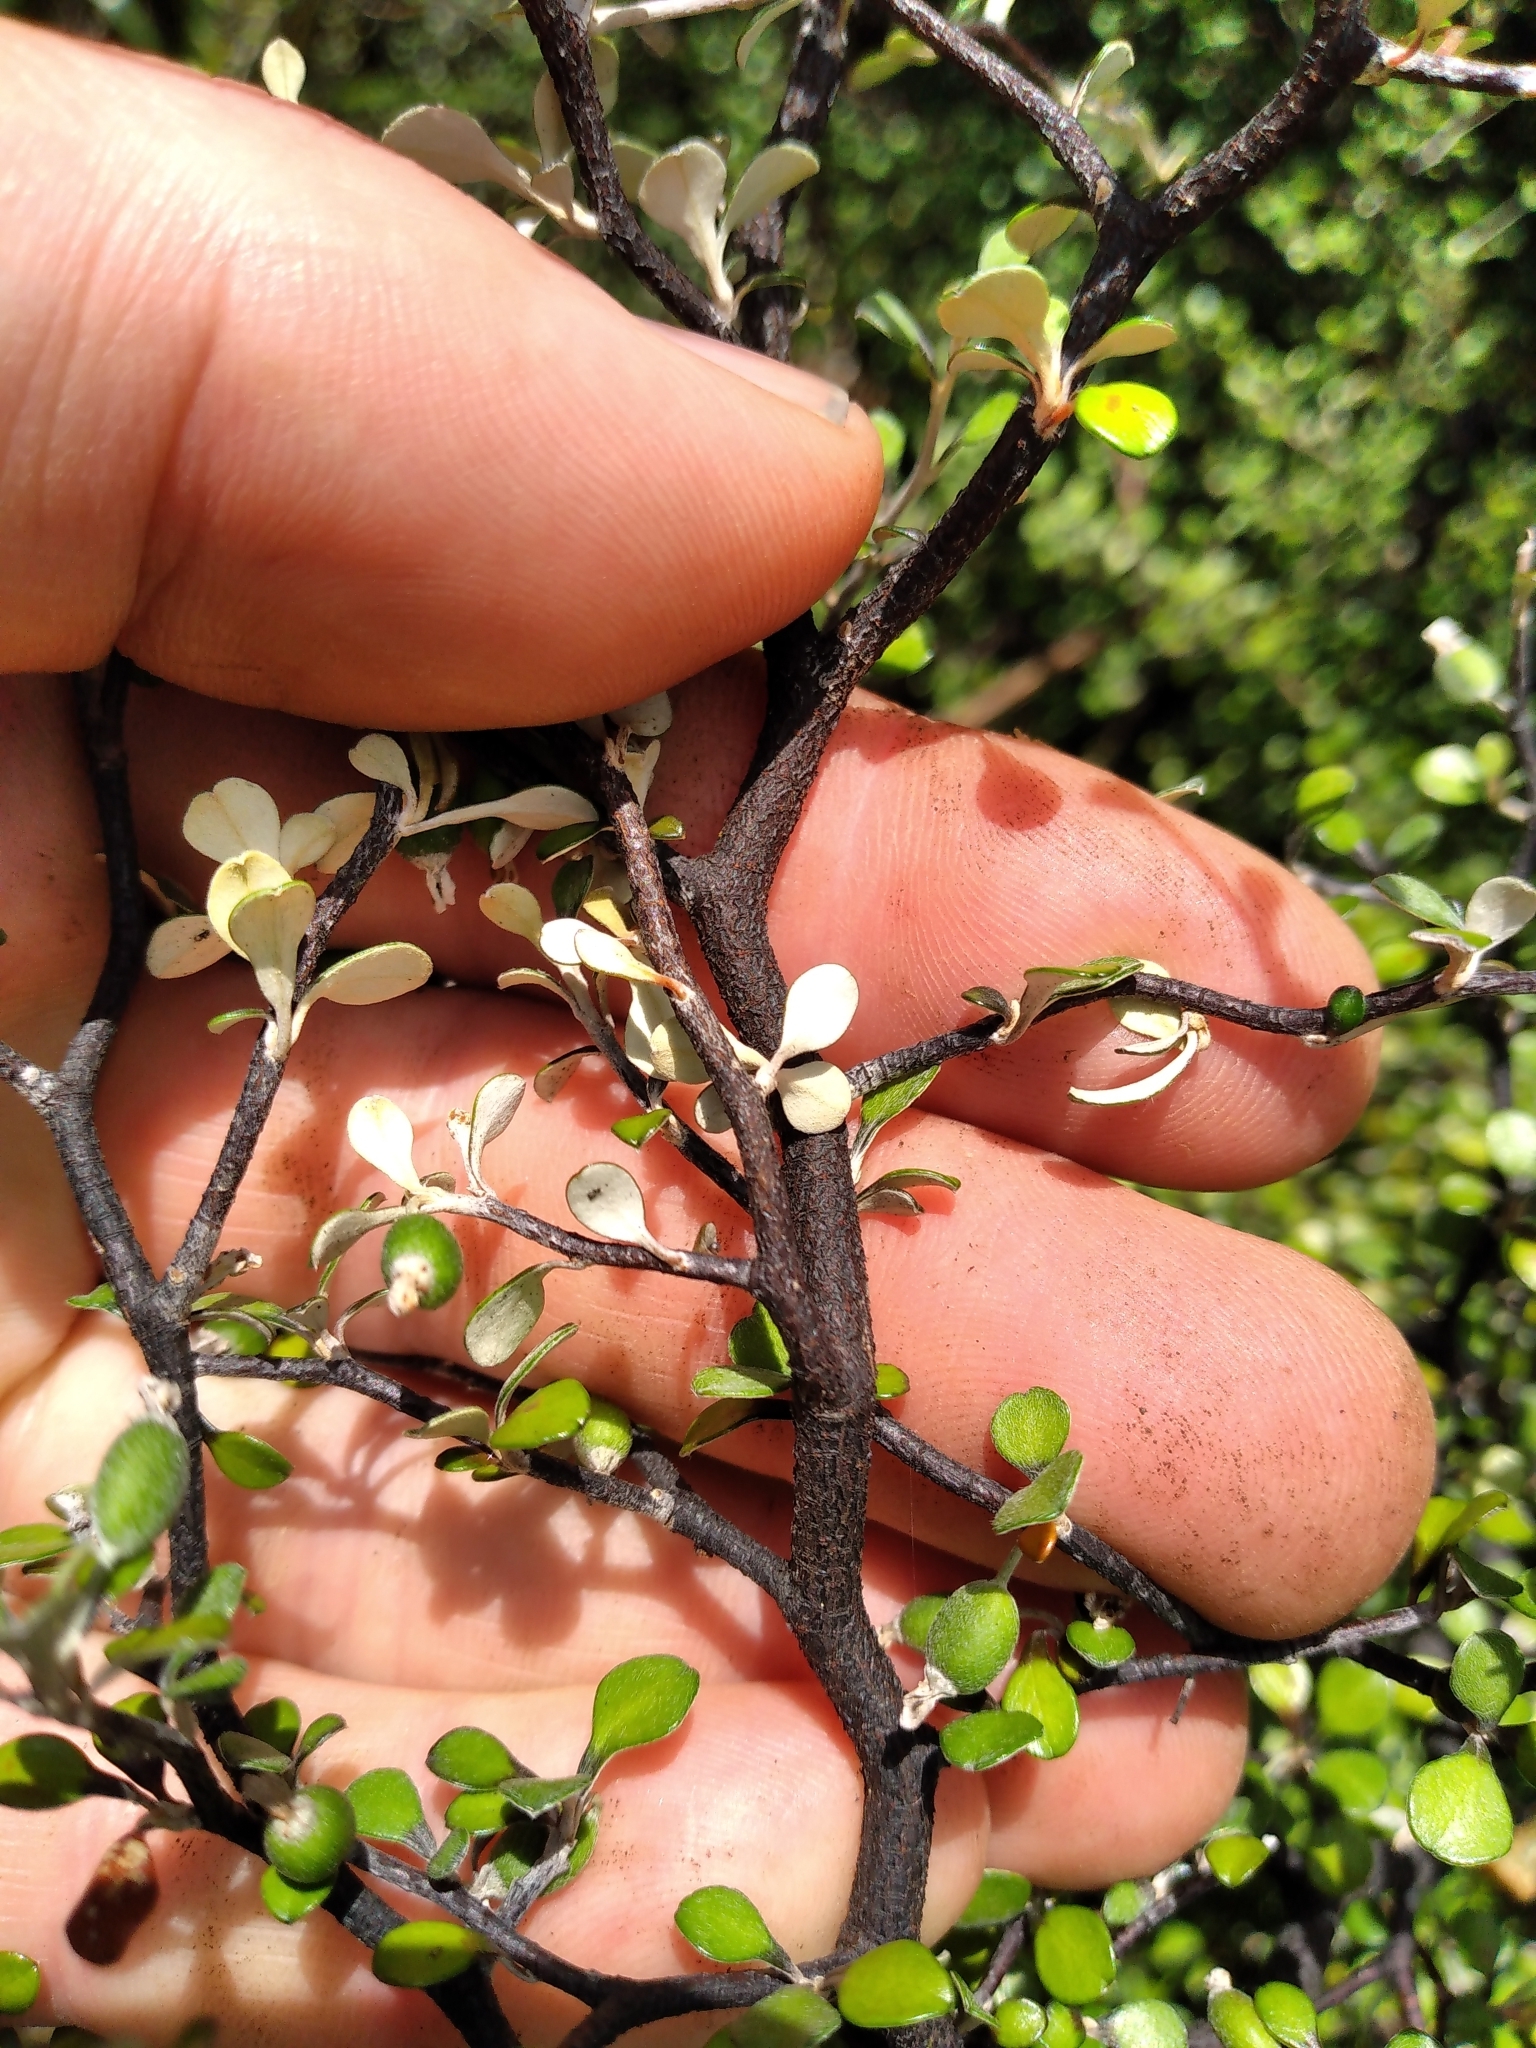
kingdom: Plantae
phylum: Tracheophyta
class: Magnoliopsida
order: Asterales
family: Argophyllaceae
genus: Corokia
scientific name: Corokia cotoneaster
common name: Wire nettingbush
